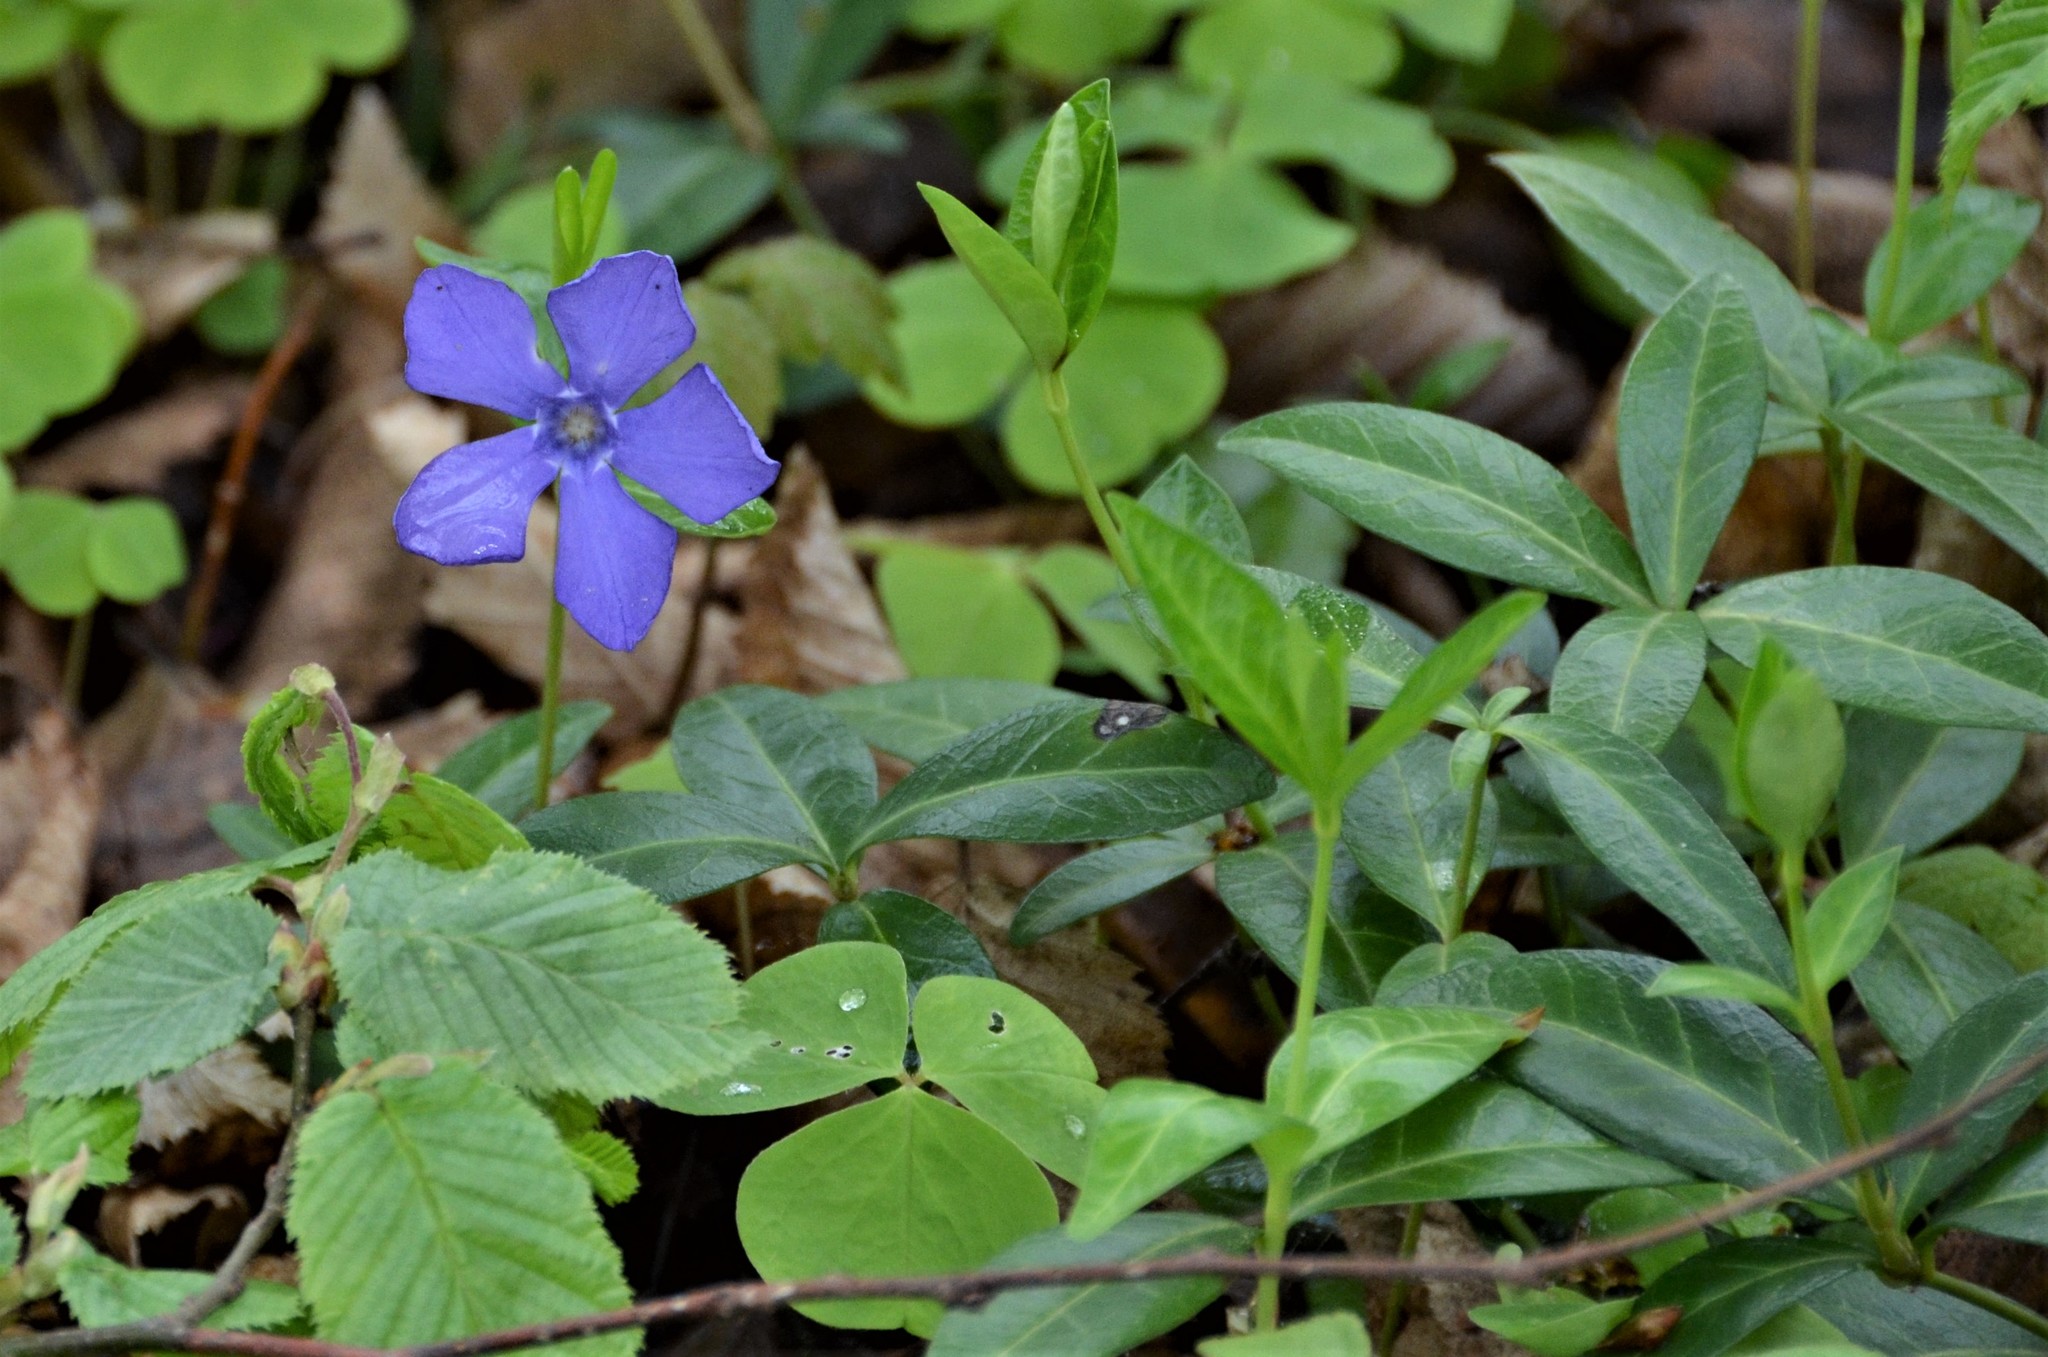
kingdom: Plantae
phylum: Tracheophyta
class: Magnoliopsida
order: Gentianales
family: Apocynaceae
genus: Vinca
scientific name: Vinca minor
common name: Lesser periwinkle
